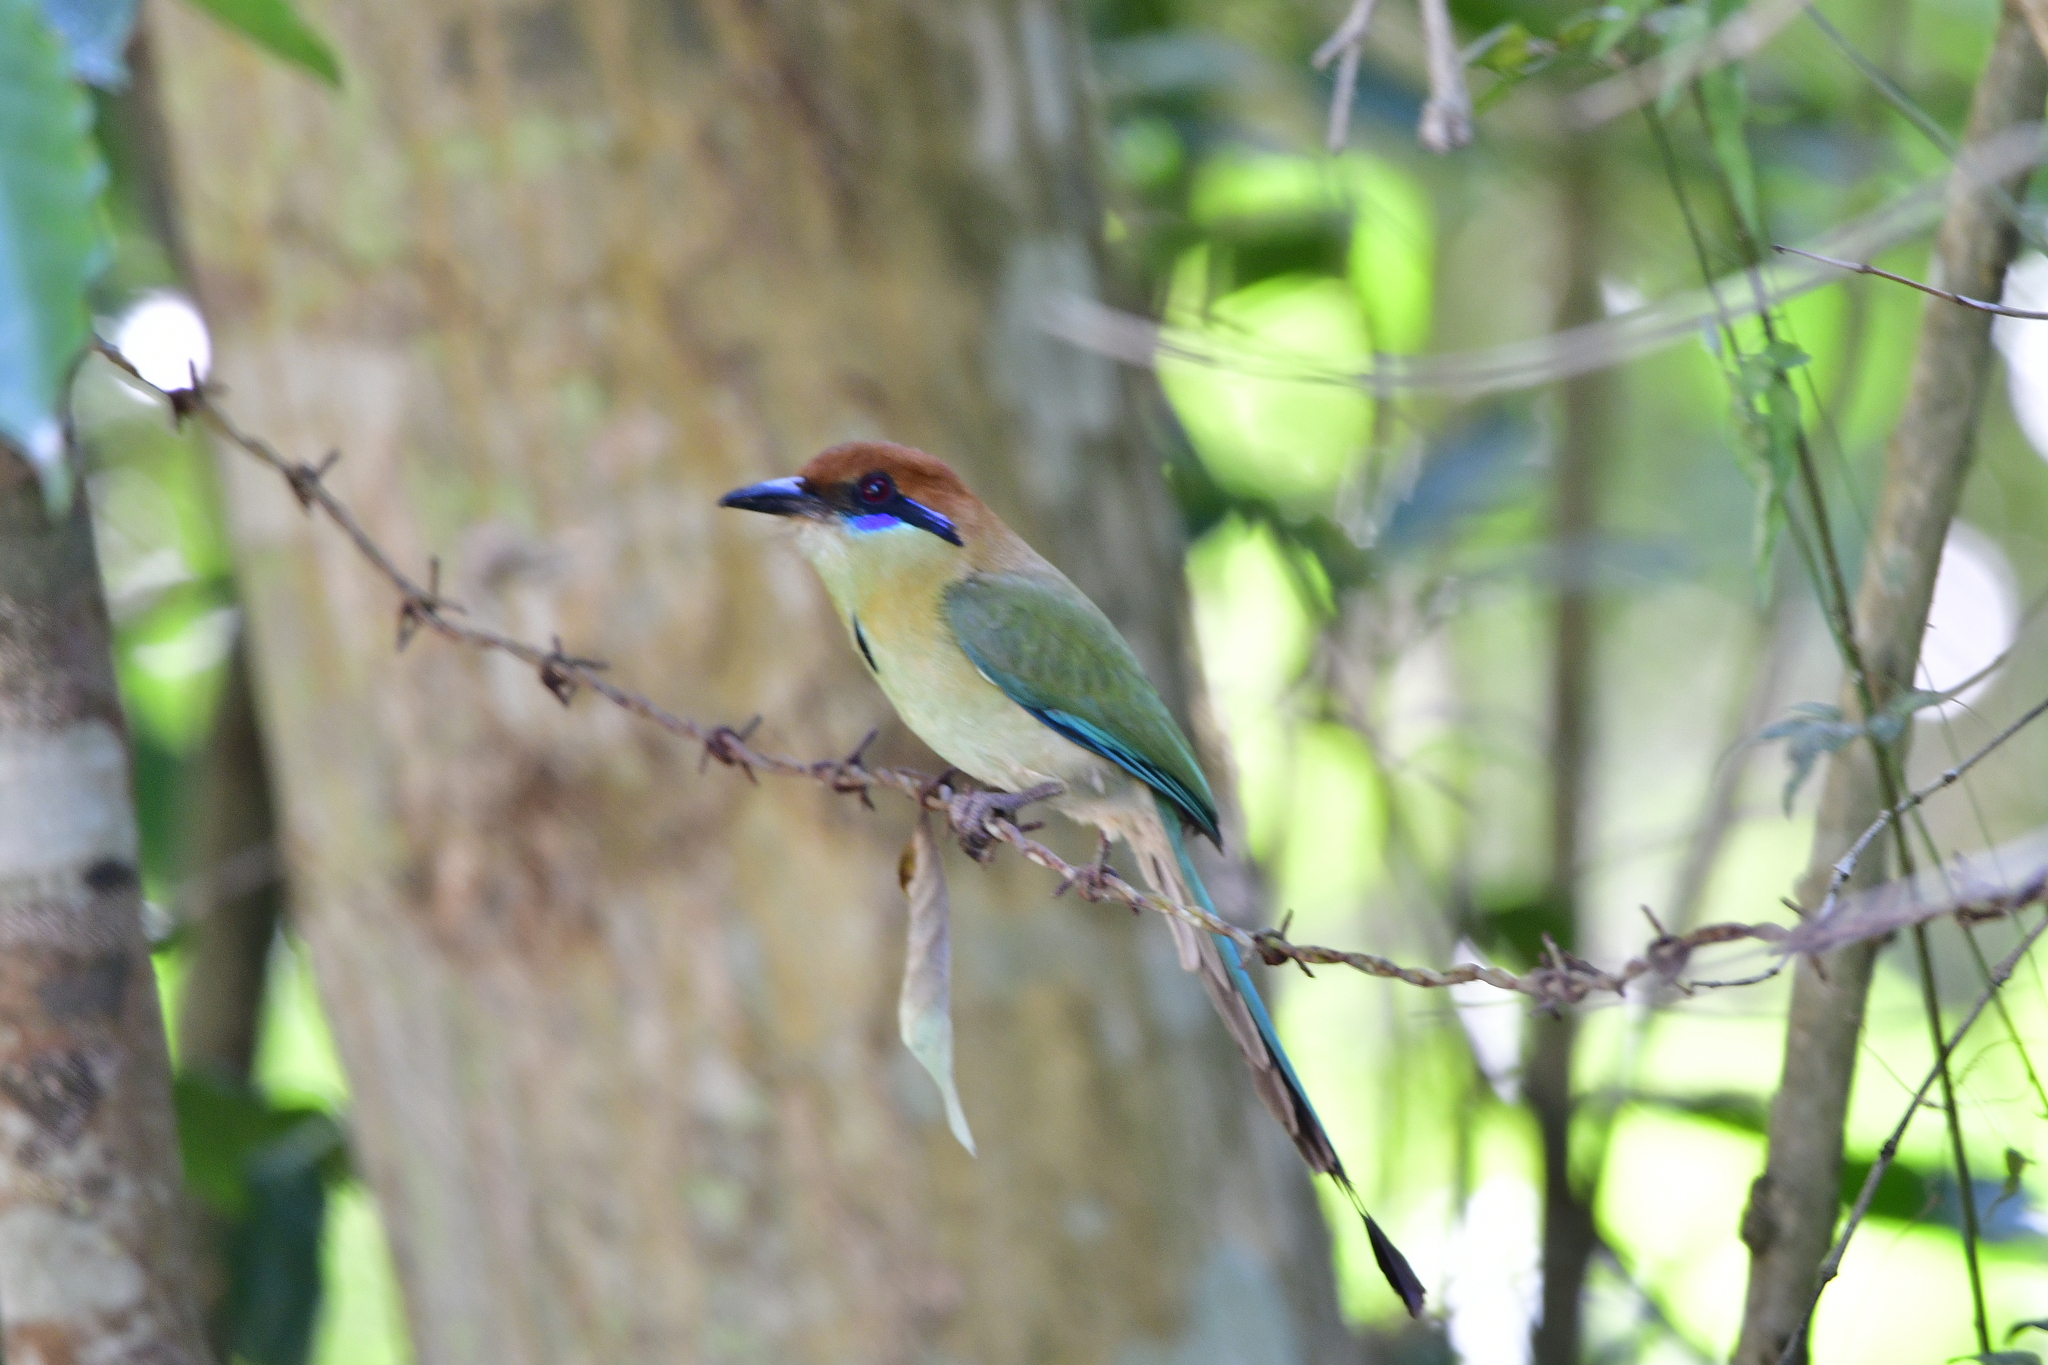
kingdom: Animalia
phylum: Chordata
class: Aves
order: Coraciiformes
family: Momotidae
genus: Momotus
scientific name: Momotus mexicanus
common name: Russet-crowned motmot
